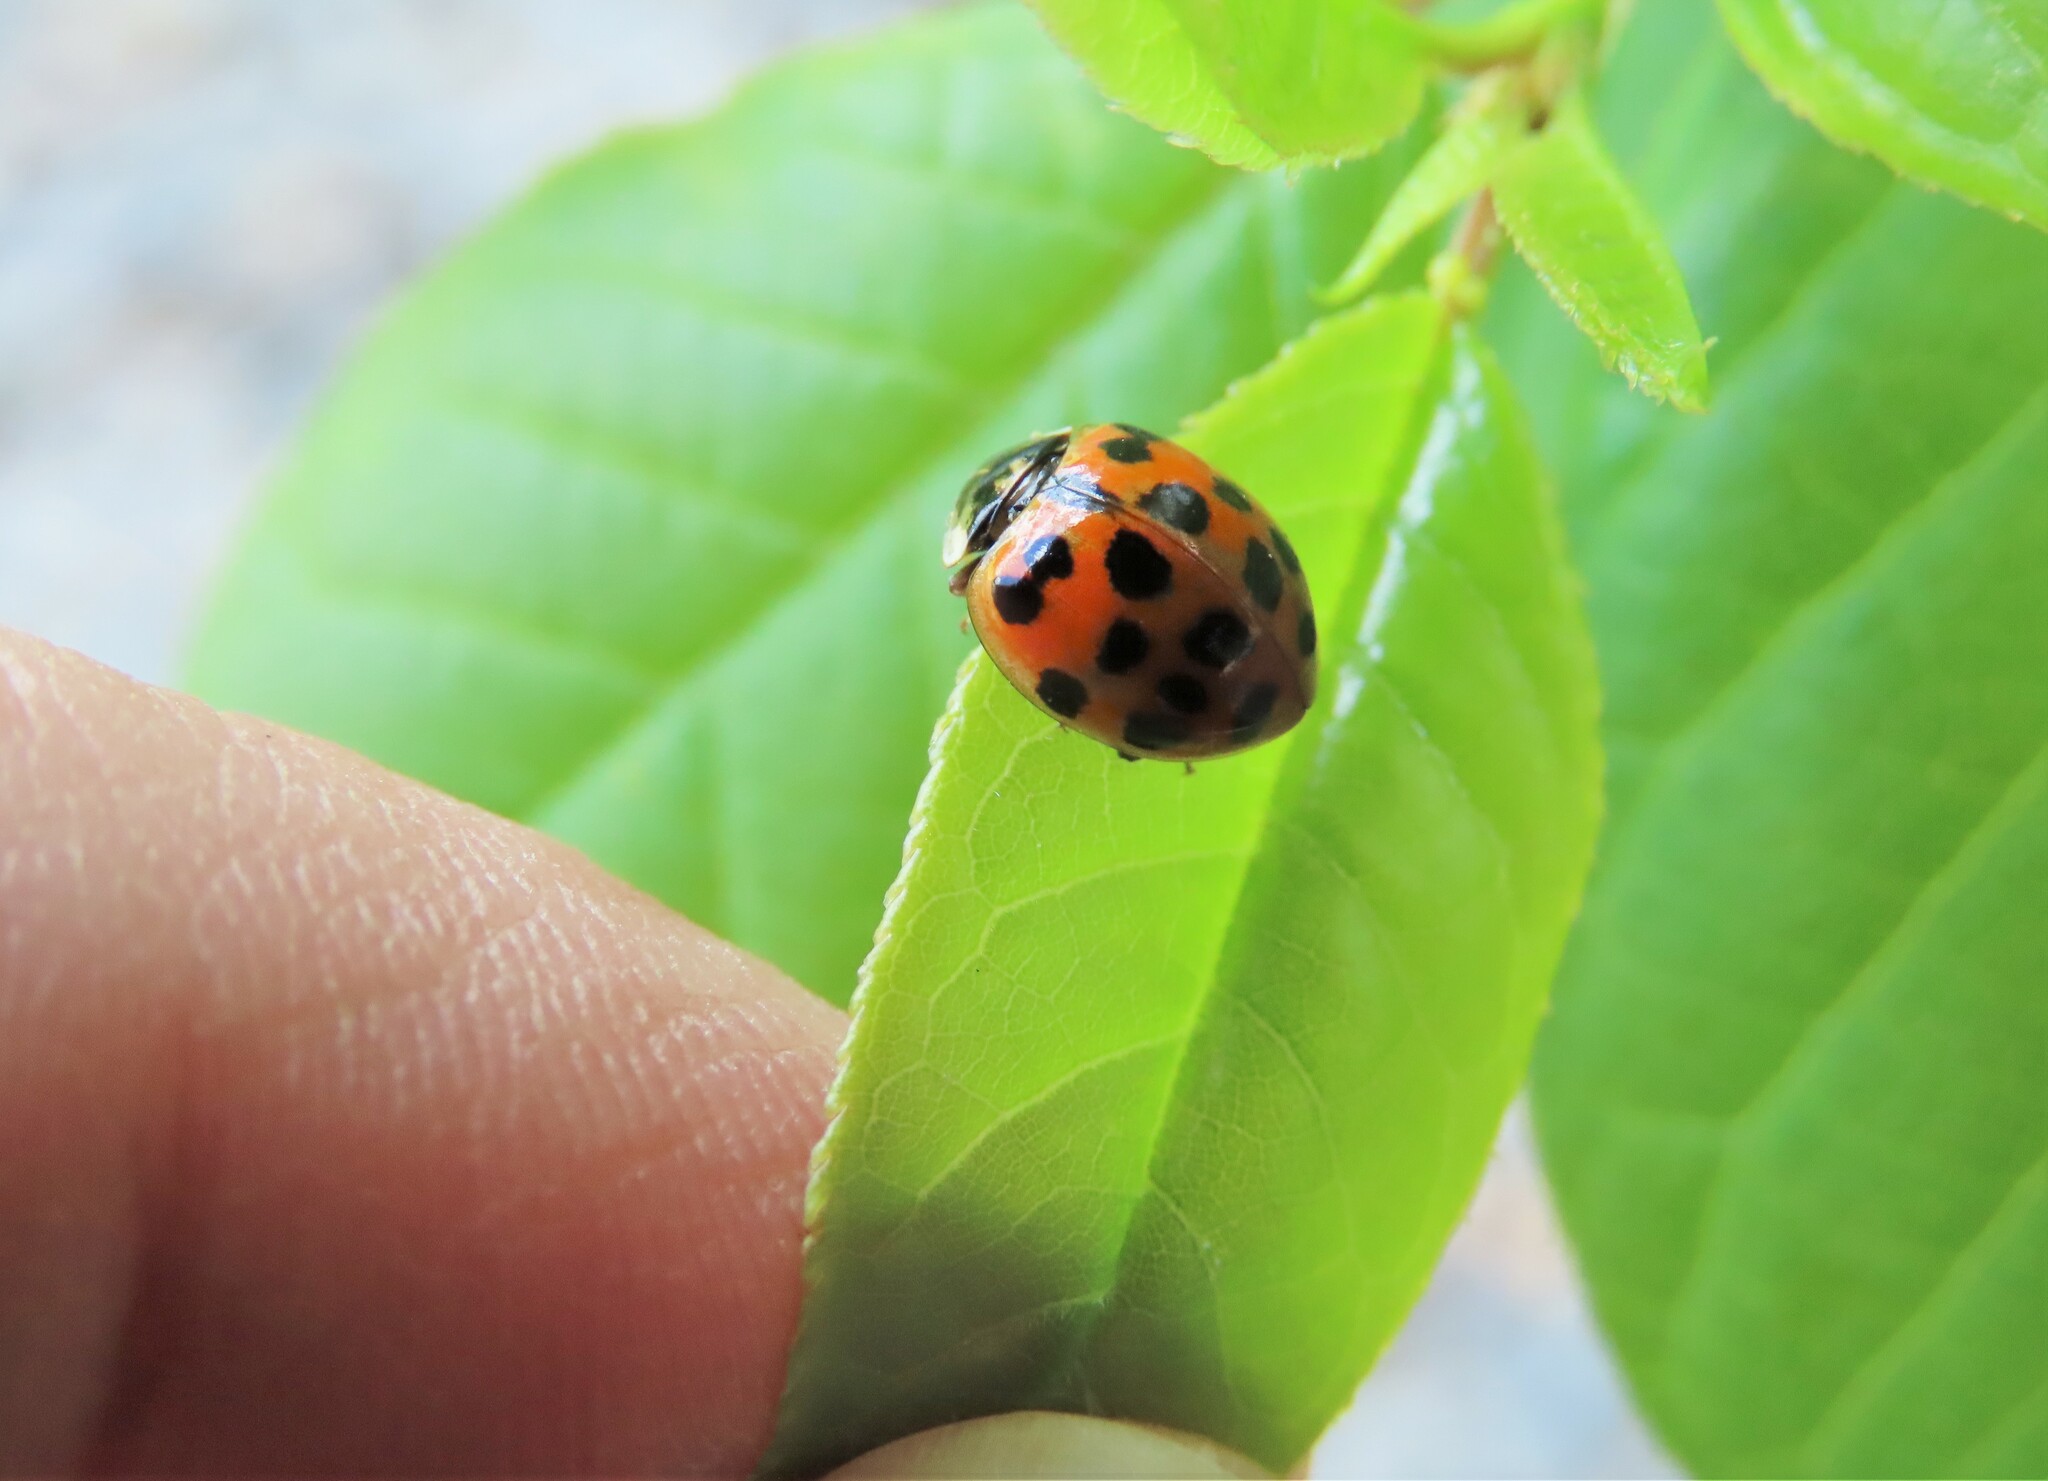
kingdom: Animalia
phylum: Arthropoda
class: Insecta
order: Coleoptera
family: Coccinellidae
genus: Harmonia
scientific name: Harmonia axyridis
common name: Harlequin ladybird
